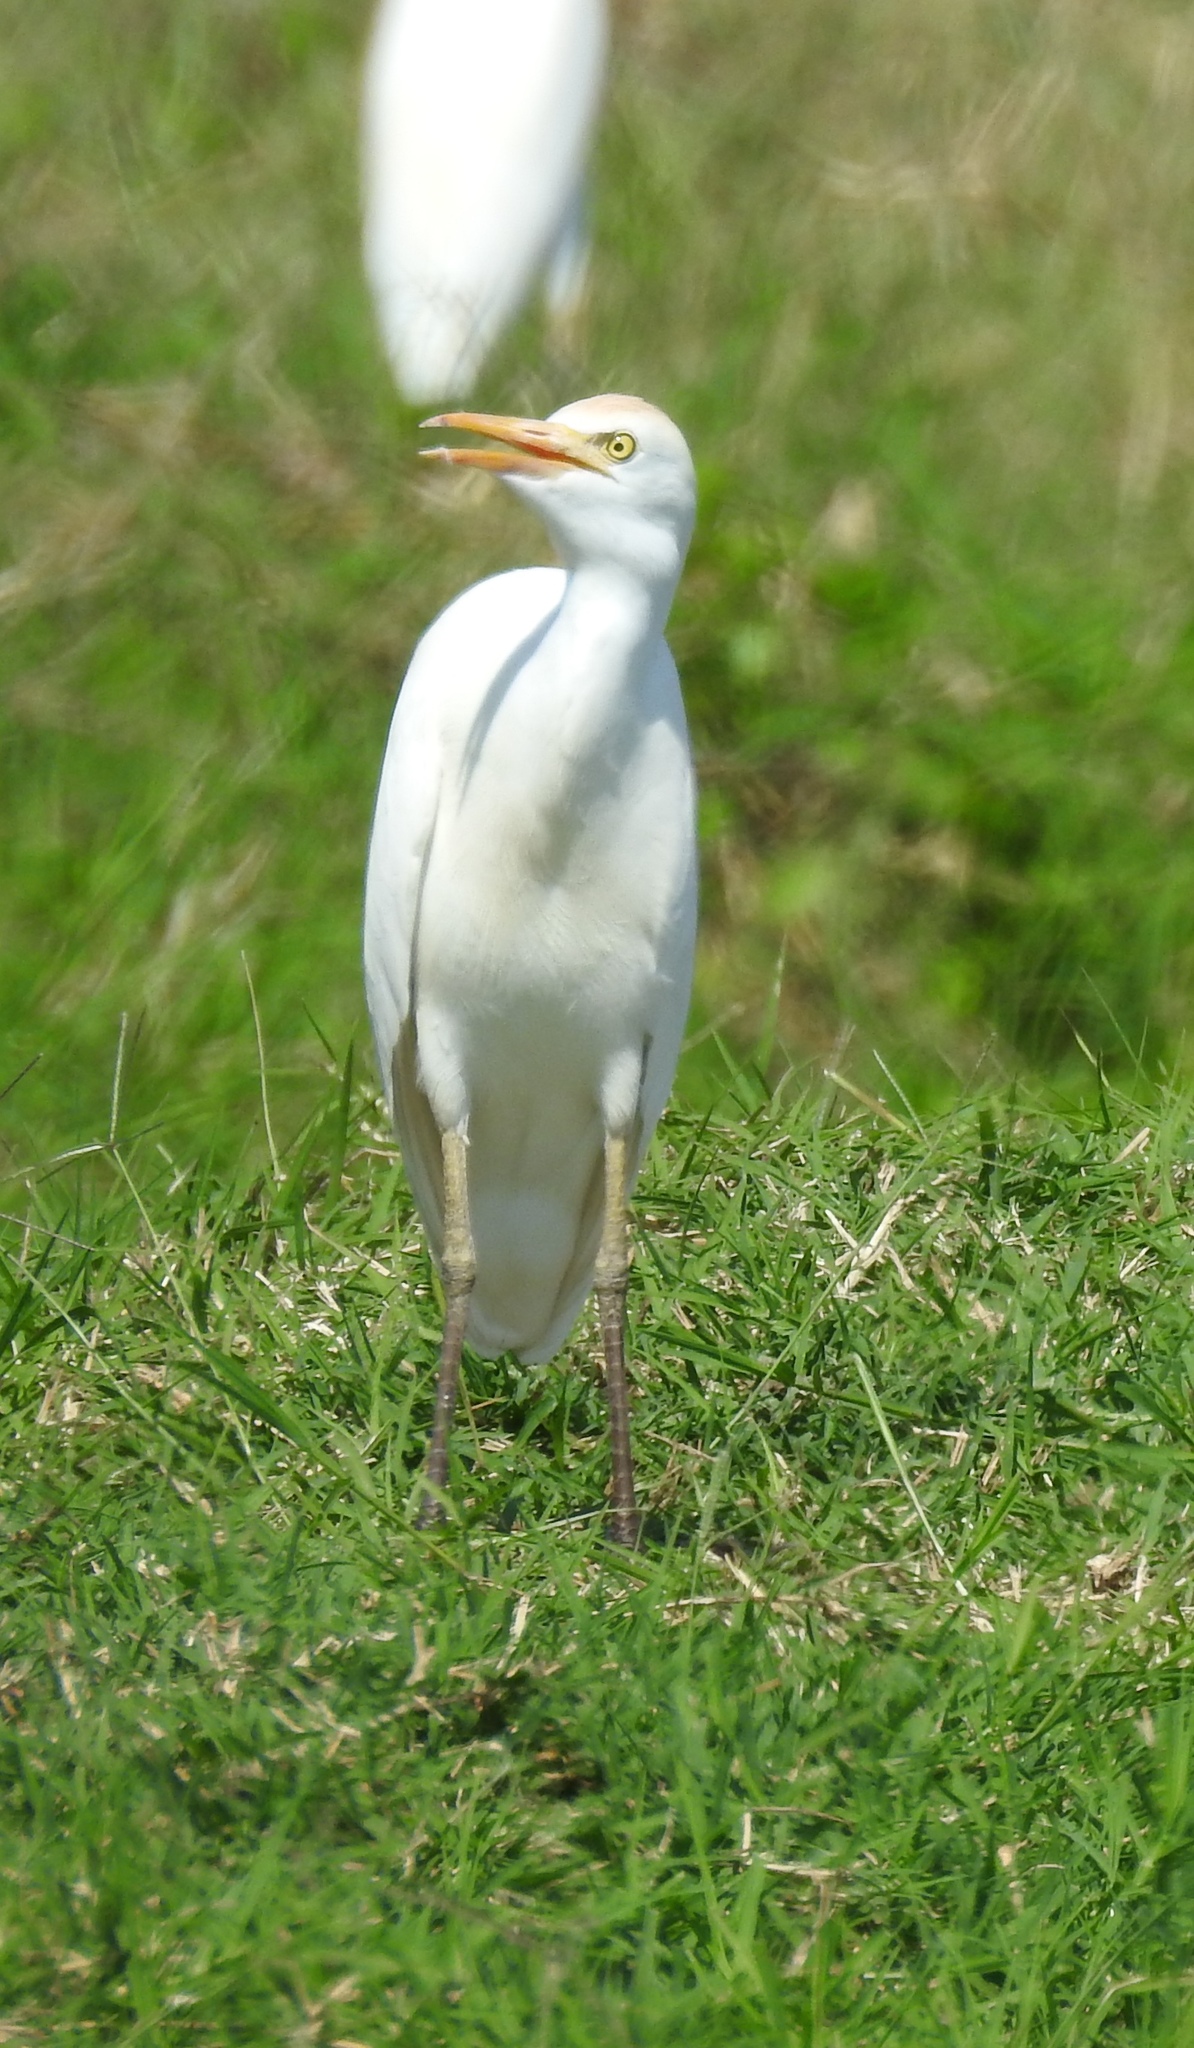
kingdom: Animalia
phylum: Chordata
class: Aves
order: Pelecaniformes
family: Ardeidae
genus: Bubulcus
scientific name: Bubulcus ibis
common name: Cattle egret
